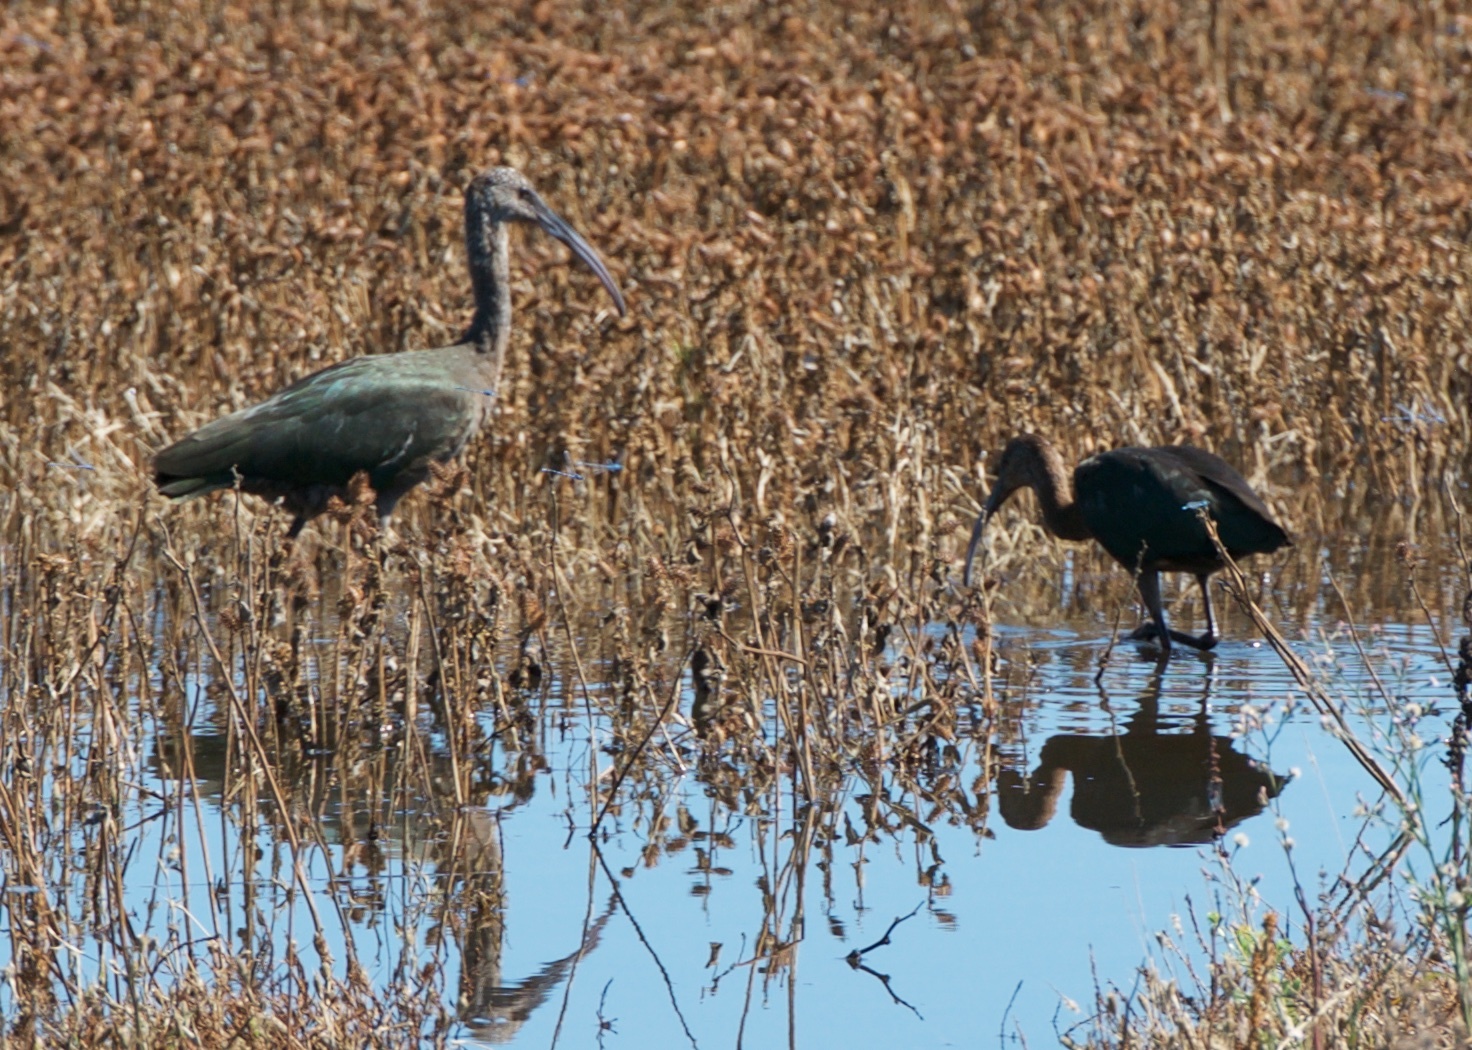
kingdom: Animalia
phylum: Chordata
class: Aves
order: Pelecaniformes
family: Threskiornithidae
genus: Plegadis
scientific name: Plegadis chihi
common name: White-faced ibis
